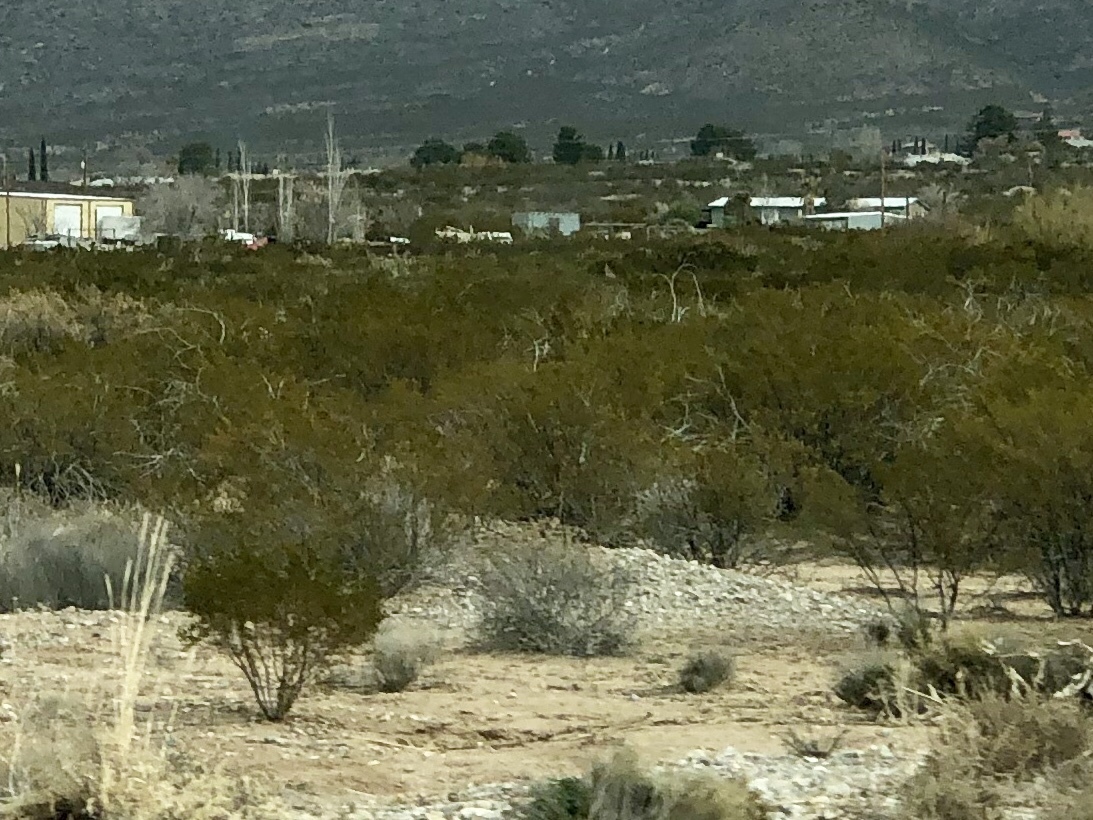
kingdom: Plantae
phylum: Tracheophyta
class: Magnoliopsida
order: Zygophyllales
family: Zygophyllaceae
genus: Larrea
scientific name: Larrea tridentata
